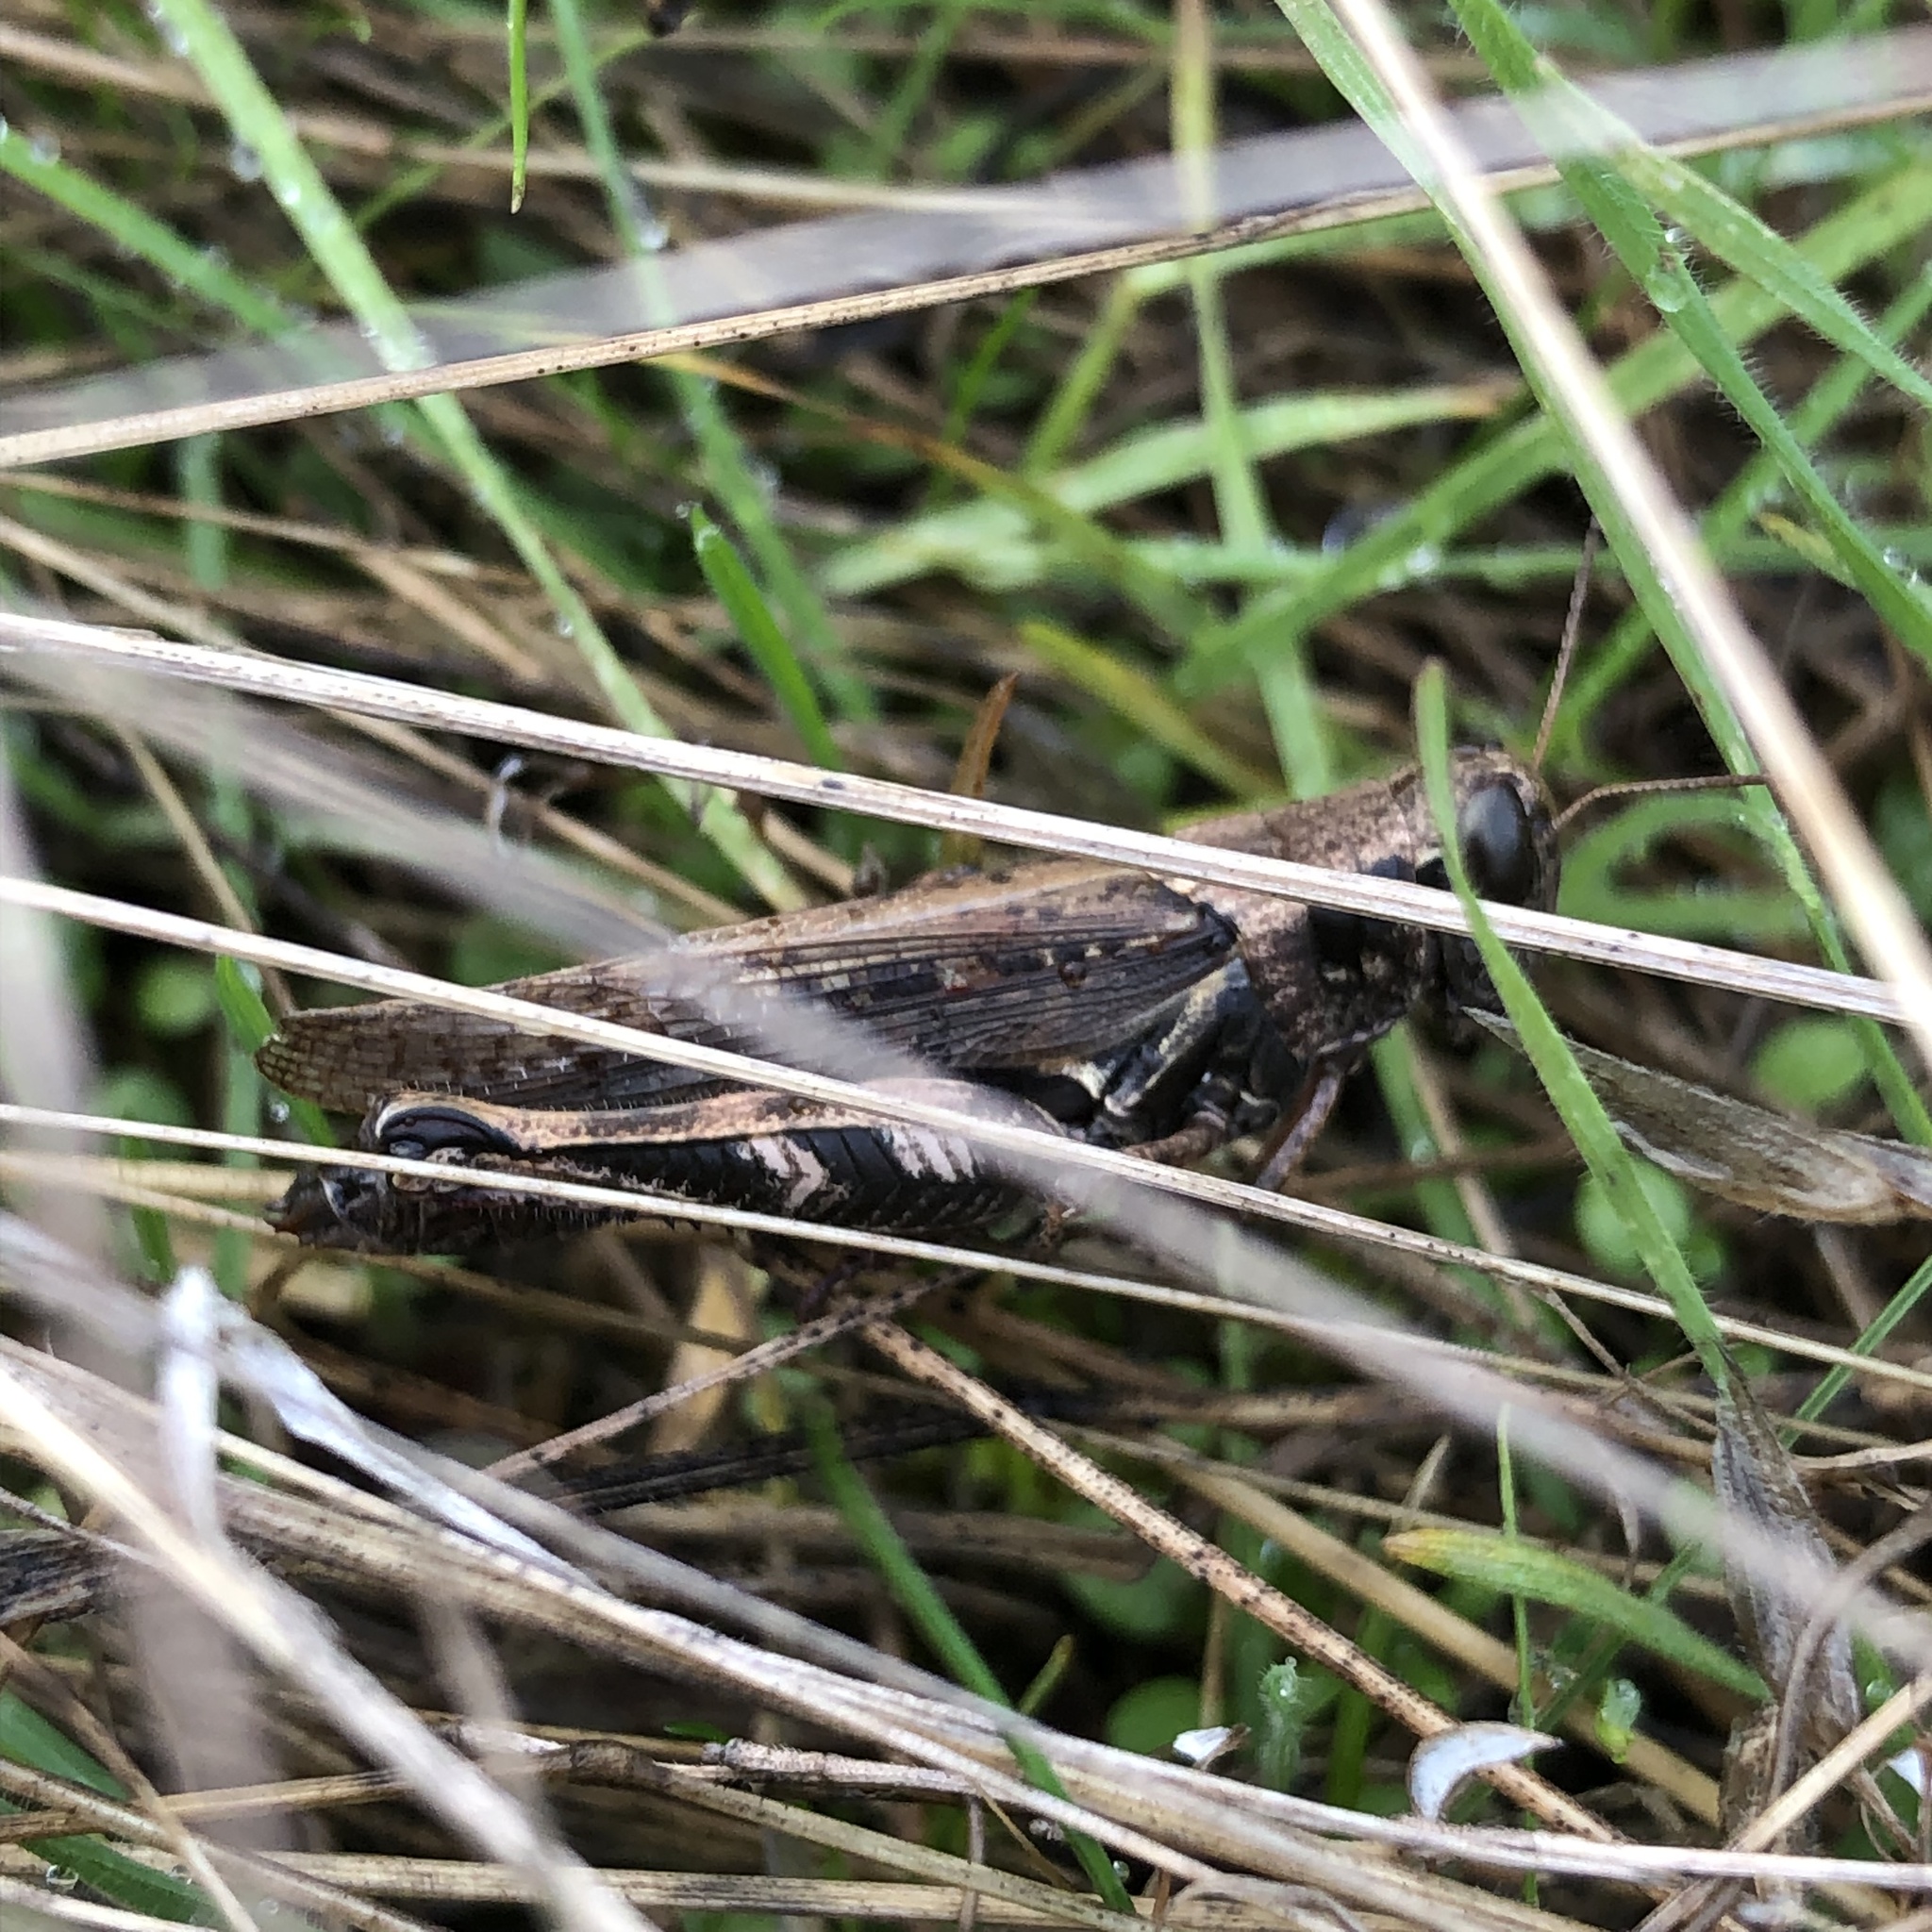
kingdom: Animalia
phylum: Arthropoda
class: Insecta
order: Orthoptera
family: Acrididae
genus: Melanoplus
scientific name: Melanoplus sanguinipes
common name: Migratory grasshopper
